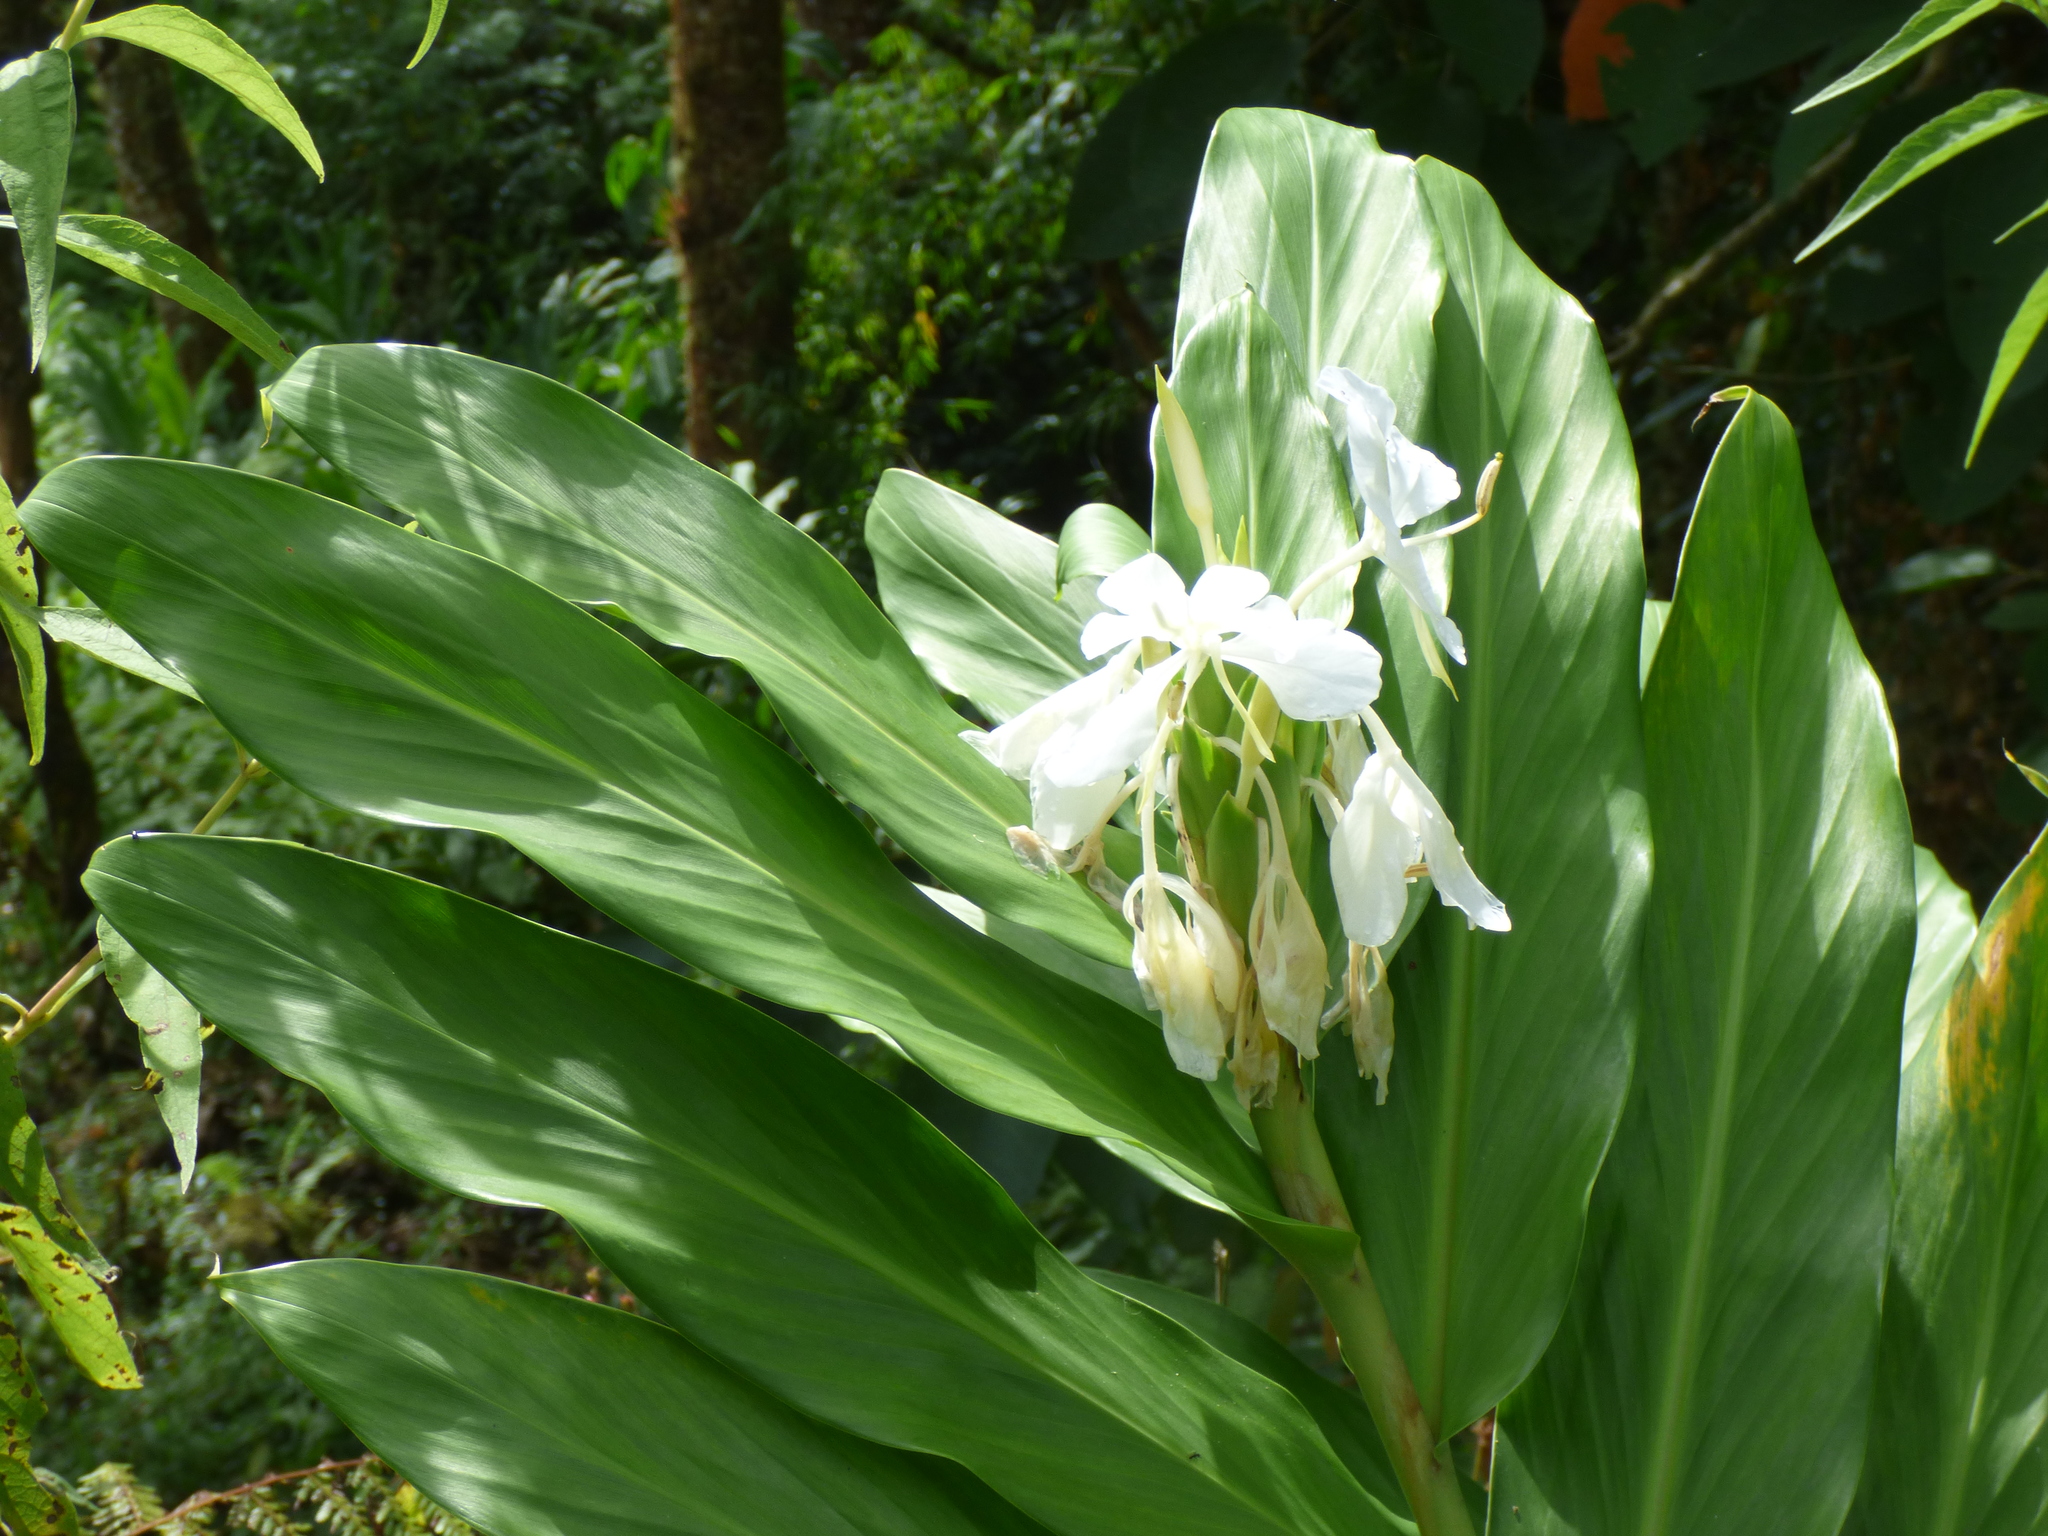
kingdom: Plantae
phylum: Tracheophyta
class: Liliopsida
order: Zingiberales
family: Zingiberaceae
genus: Hedychium
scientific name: Hedychium coronarium
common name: White garland-lily
